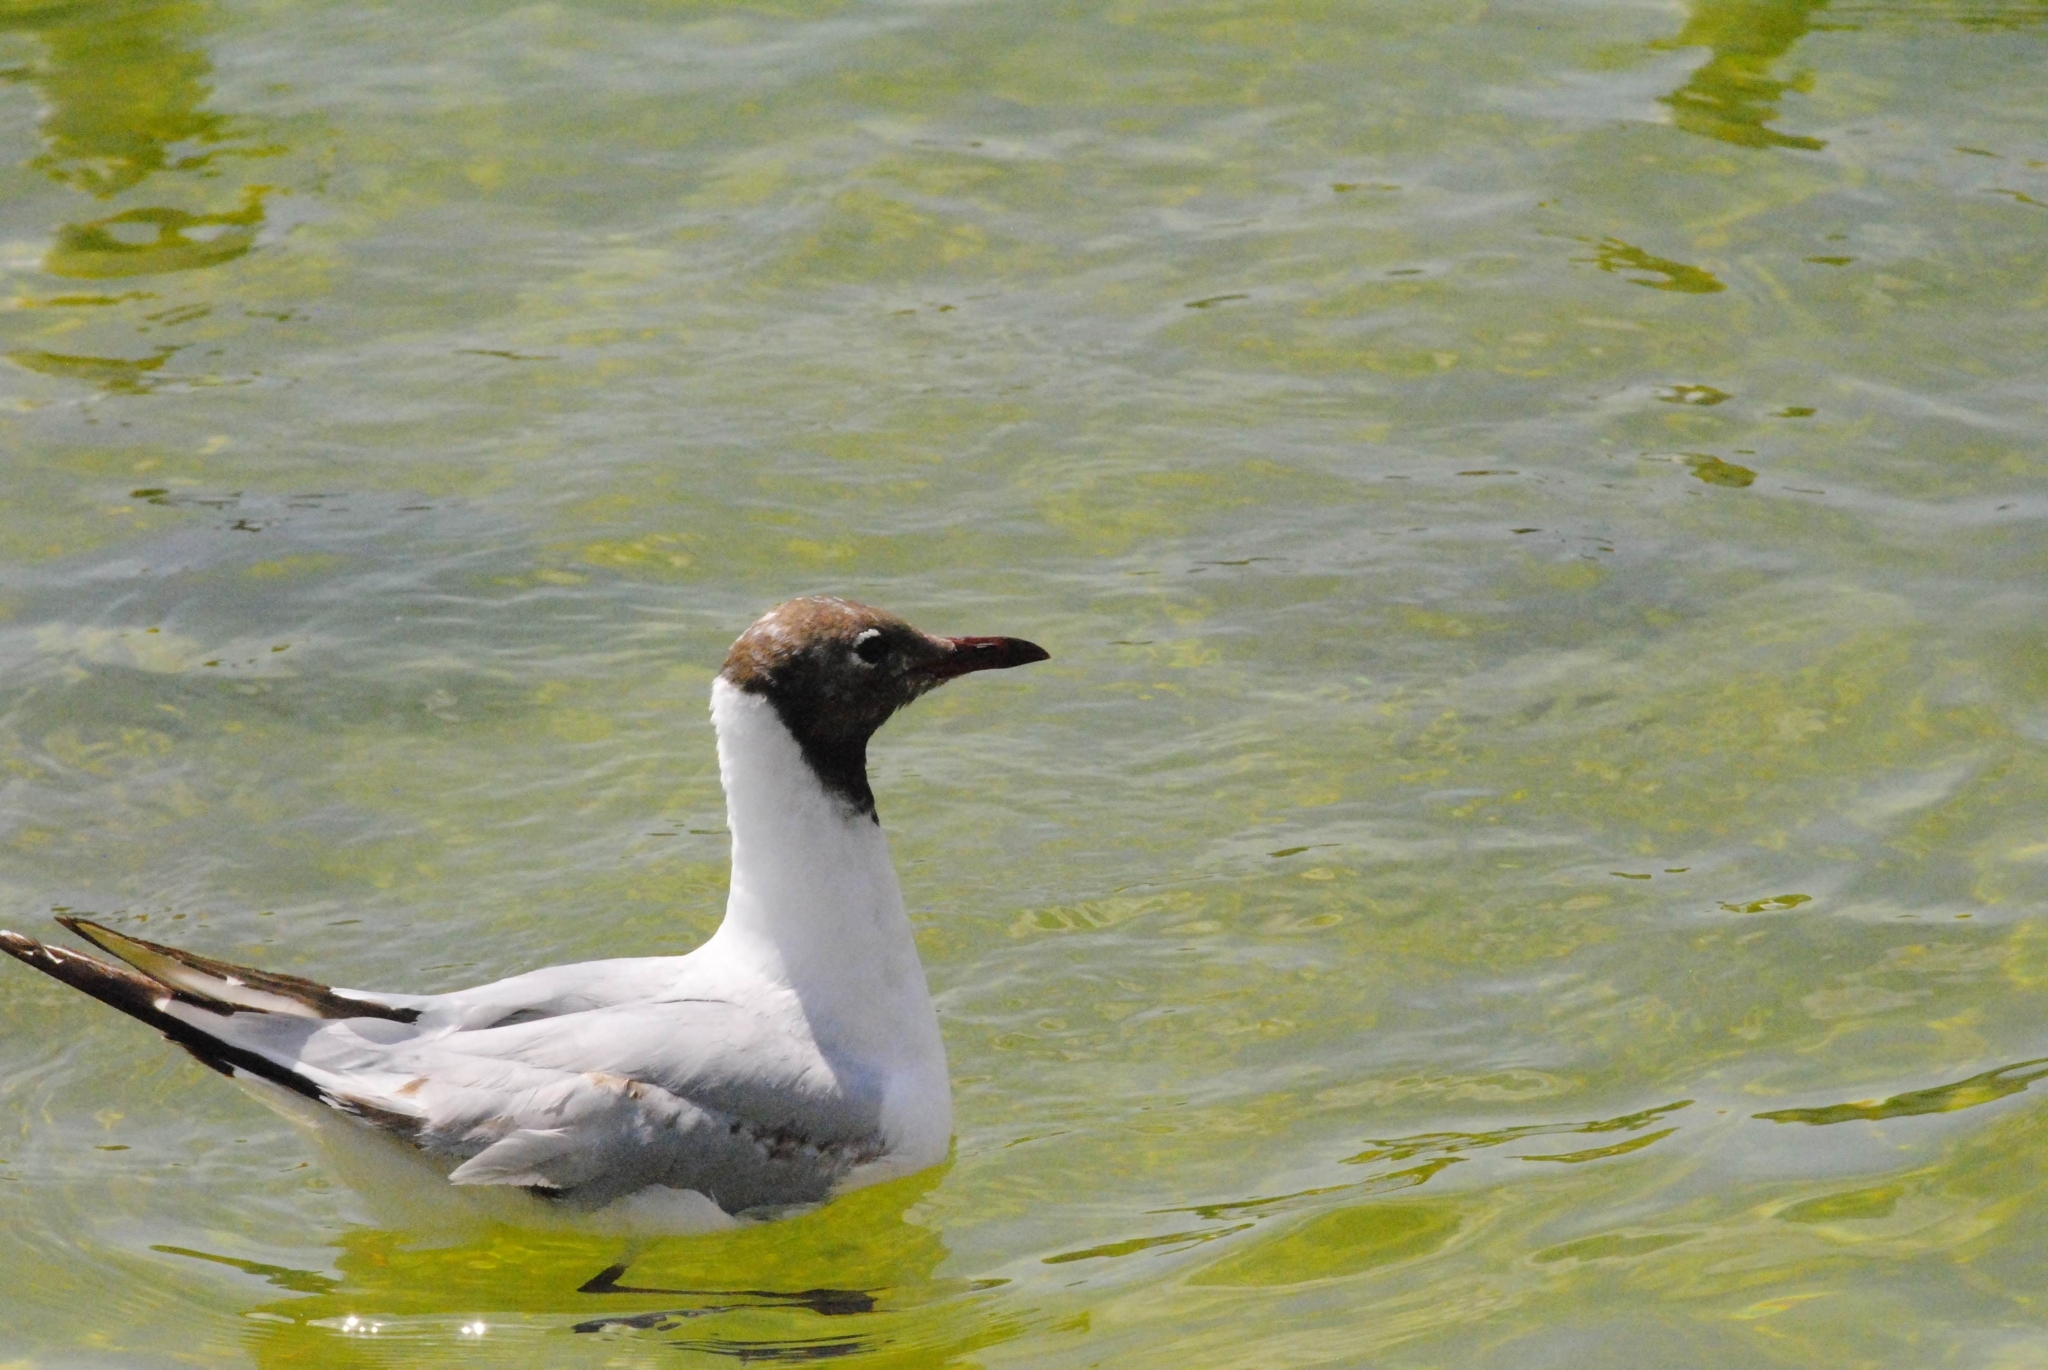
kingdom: Animalia
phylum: Chordata
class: Aves
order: Charadriiformes
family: Laridae
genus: Chroicocephalus
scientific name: Chroicocephalus ridibundus
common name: Black-headed gull
